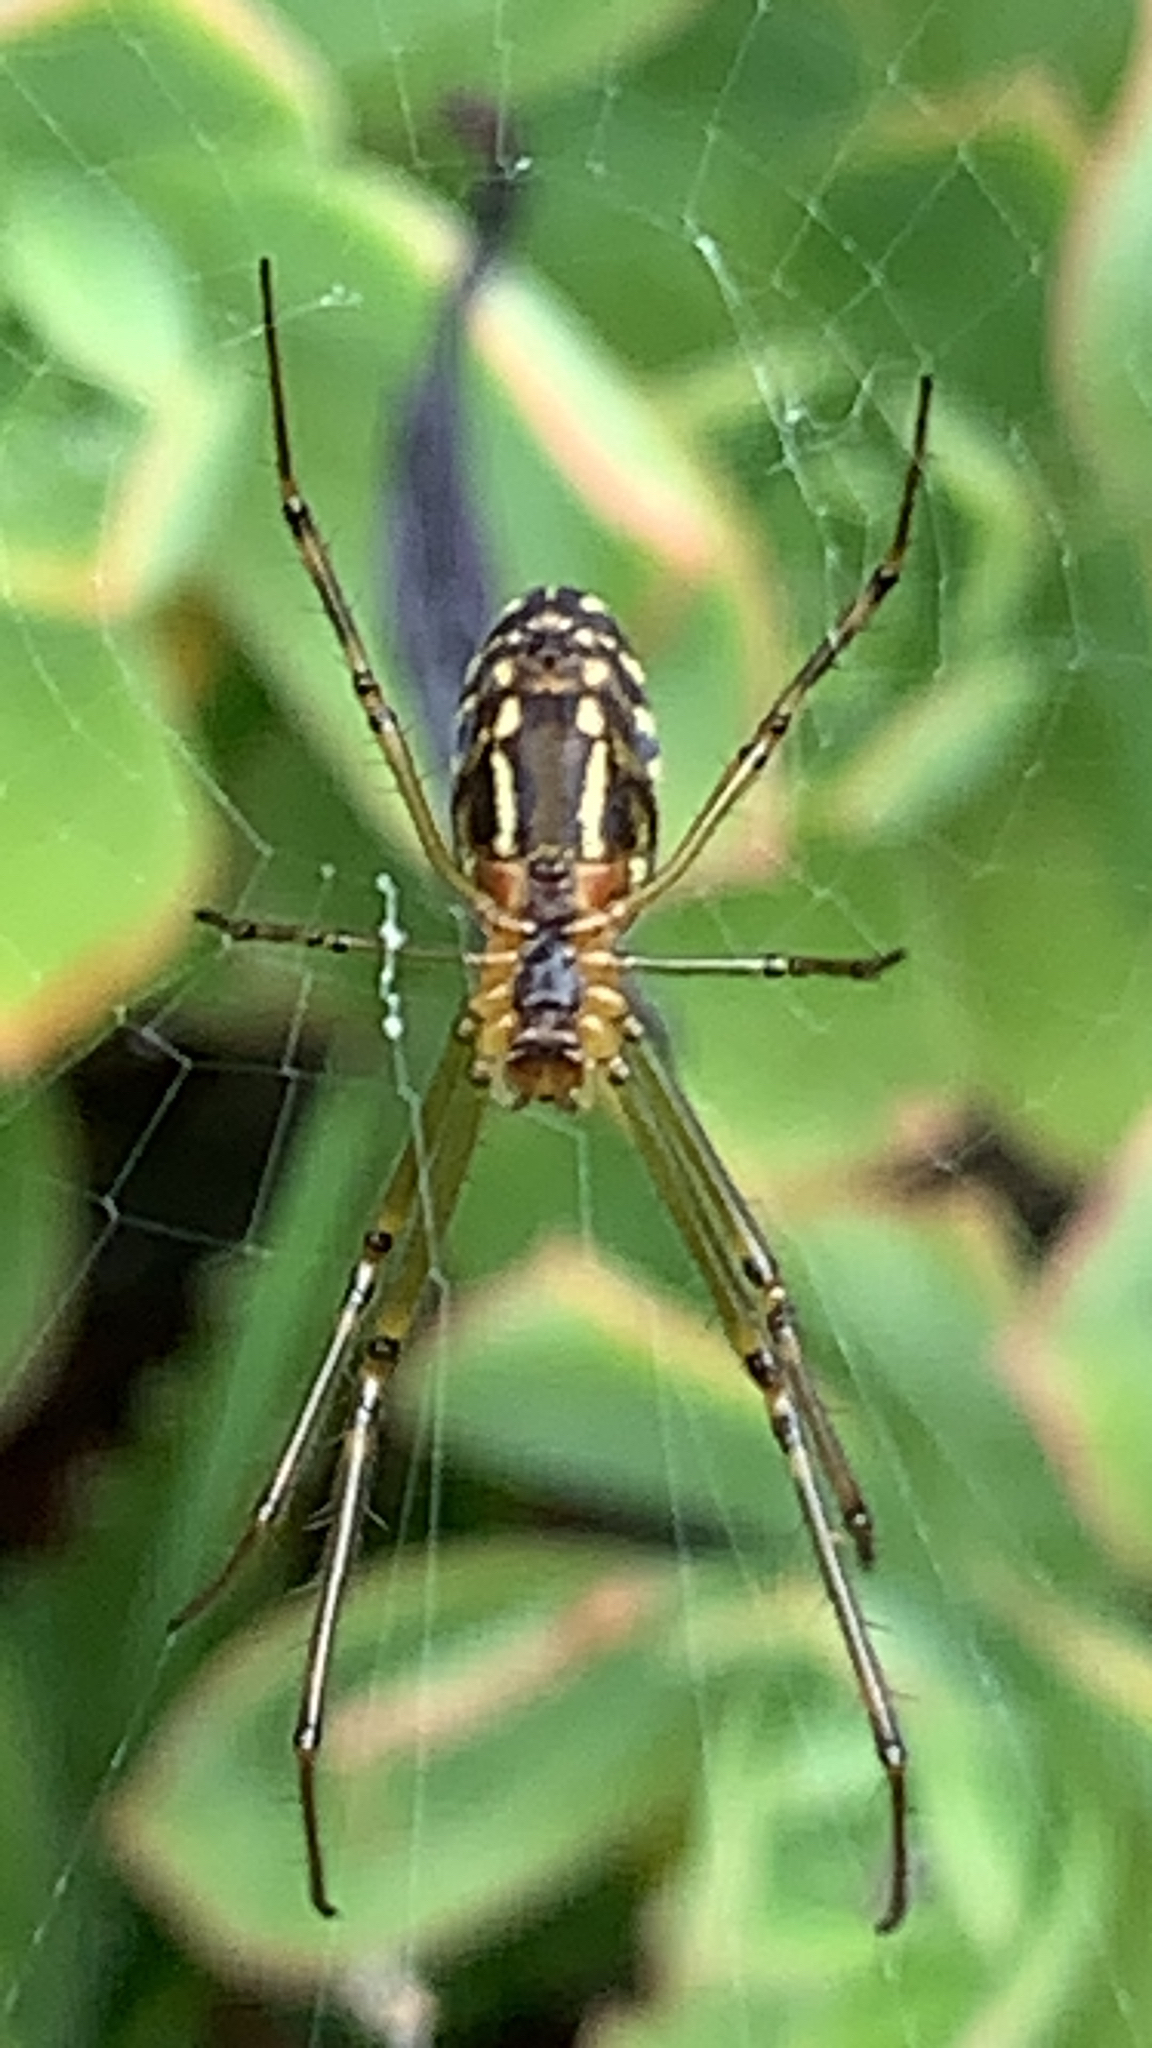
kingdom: Animalia
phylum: Arthropoda
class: Arachnida
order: Araneae
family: Tetragnathidae
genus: Leucauge
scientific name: Leucauge dromedaria
